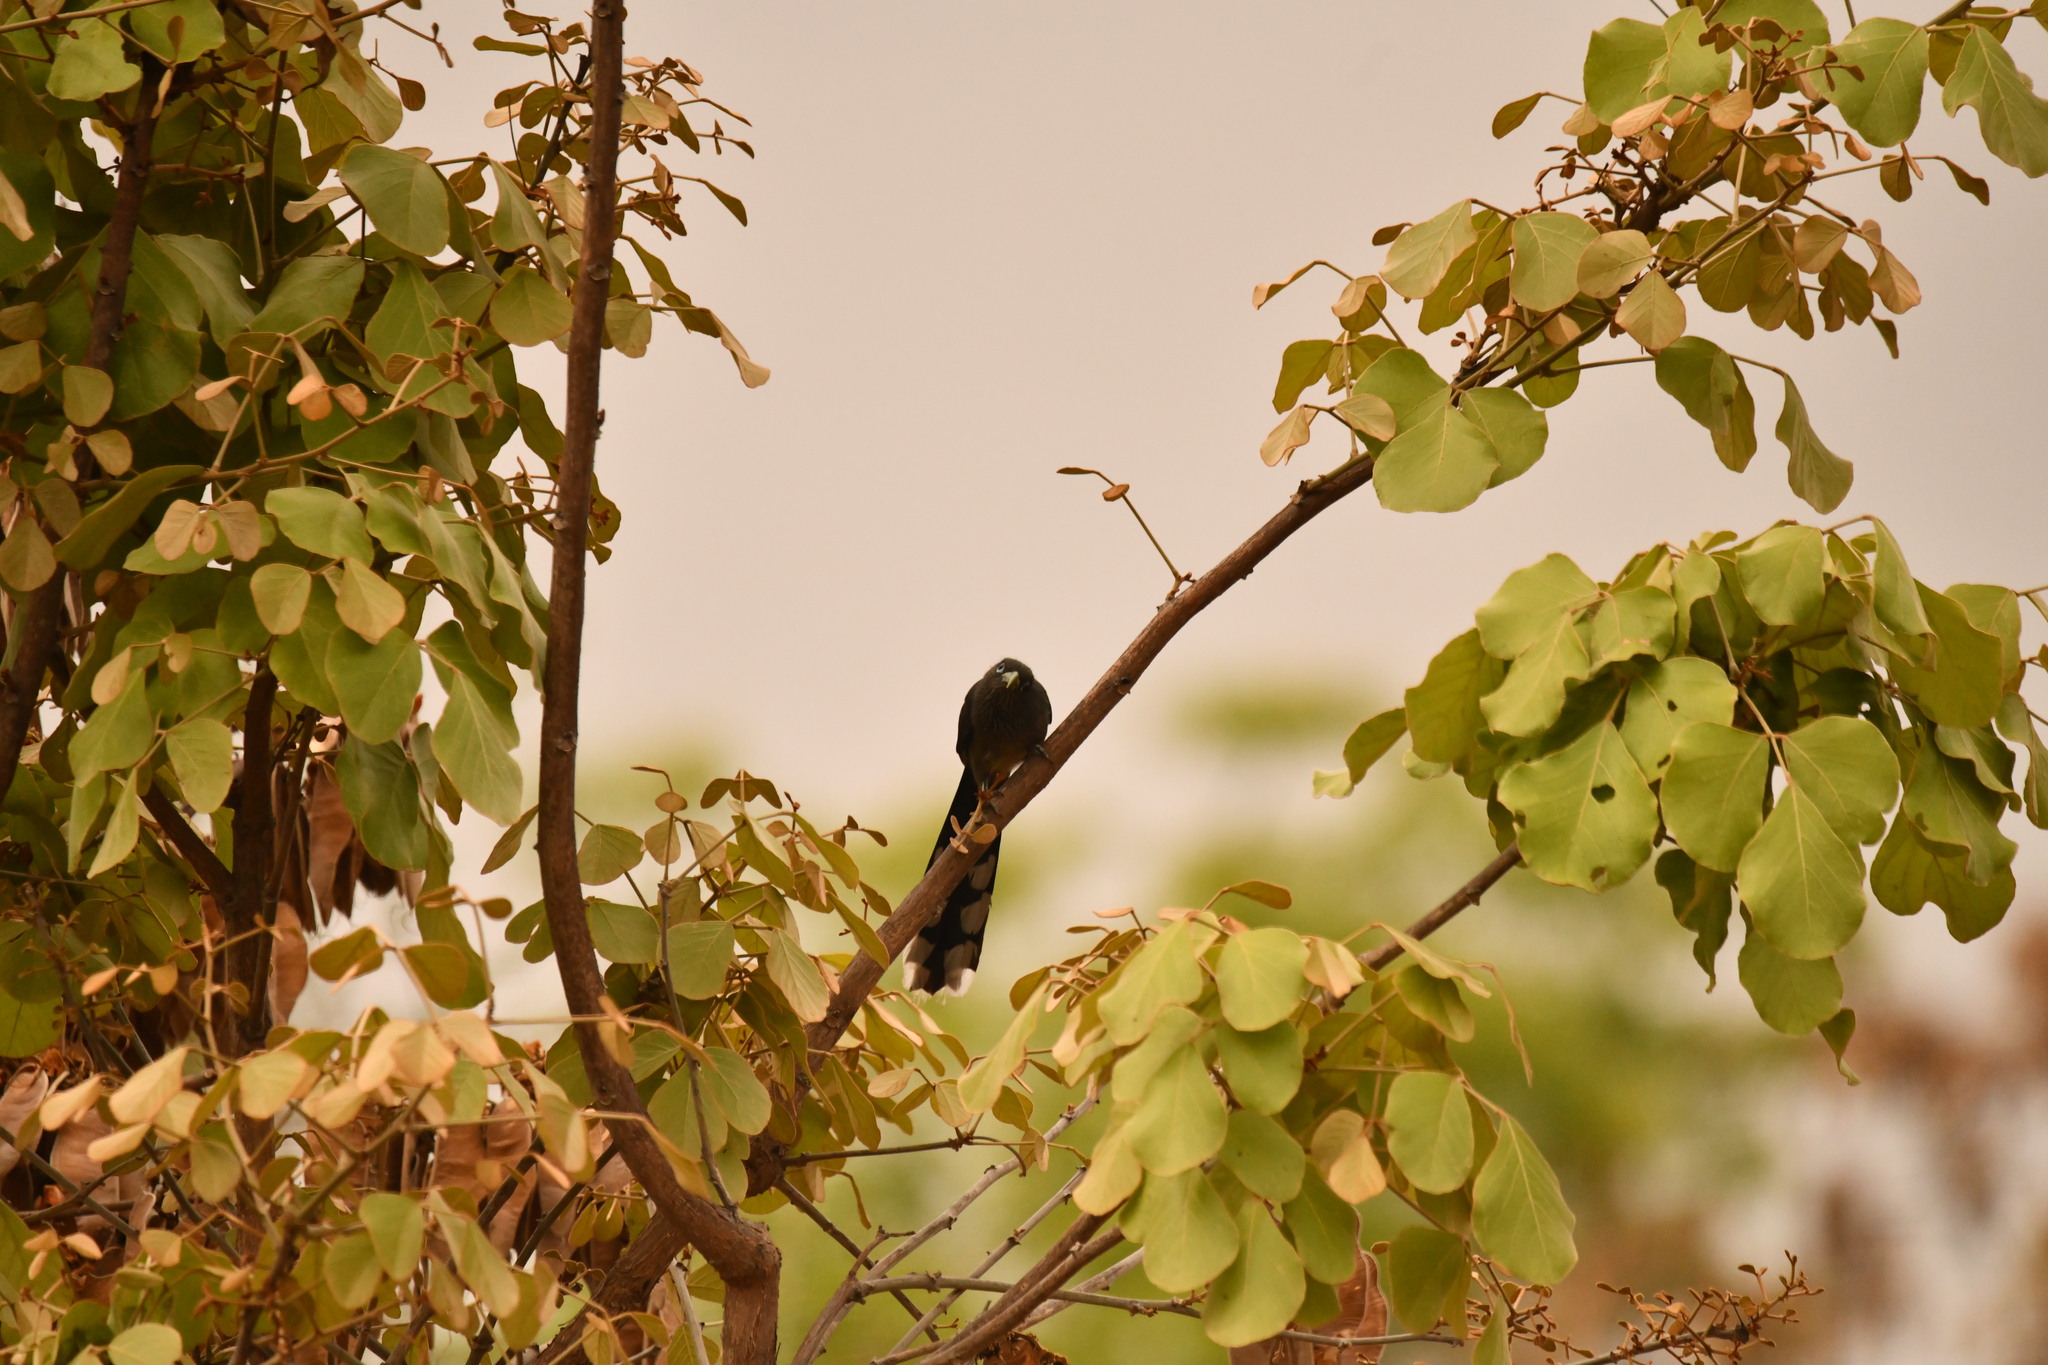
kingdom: Animalia
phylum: Chordata
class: Aves
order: Cuculiformes
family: Cuculidae
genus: Rhopodytes
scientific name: Rhopodytes viridirostris
